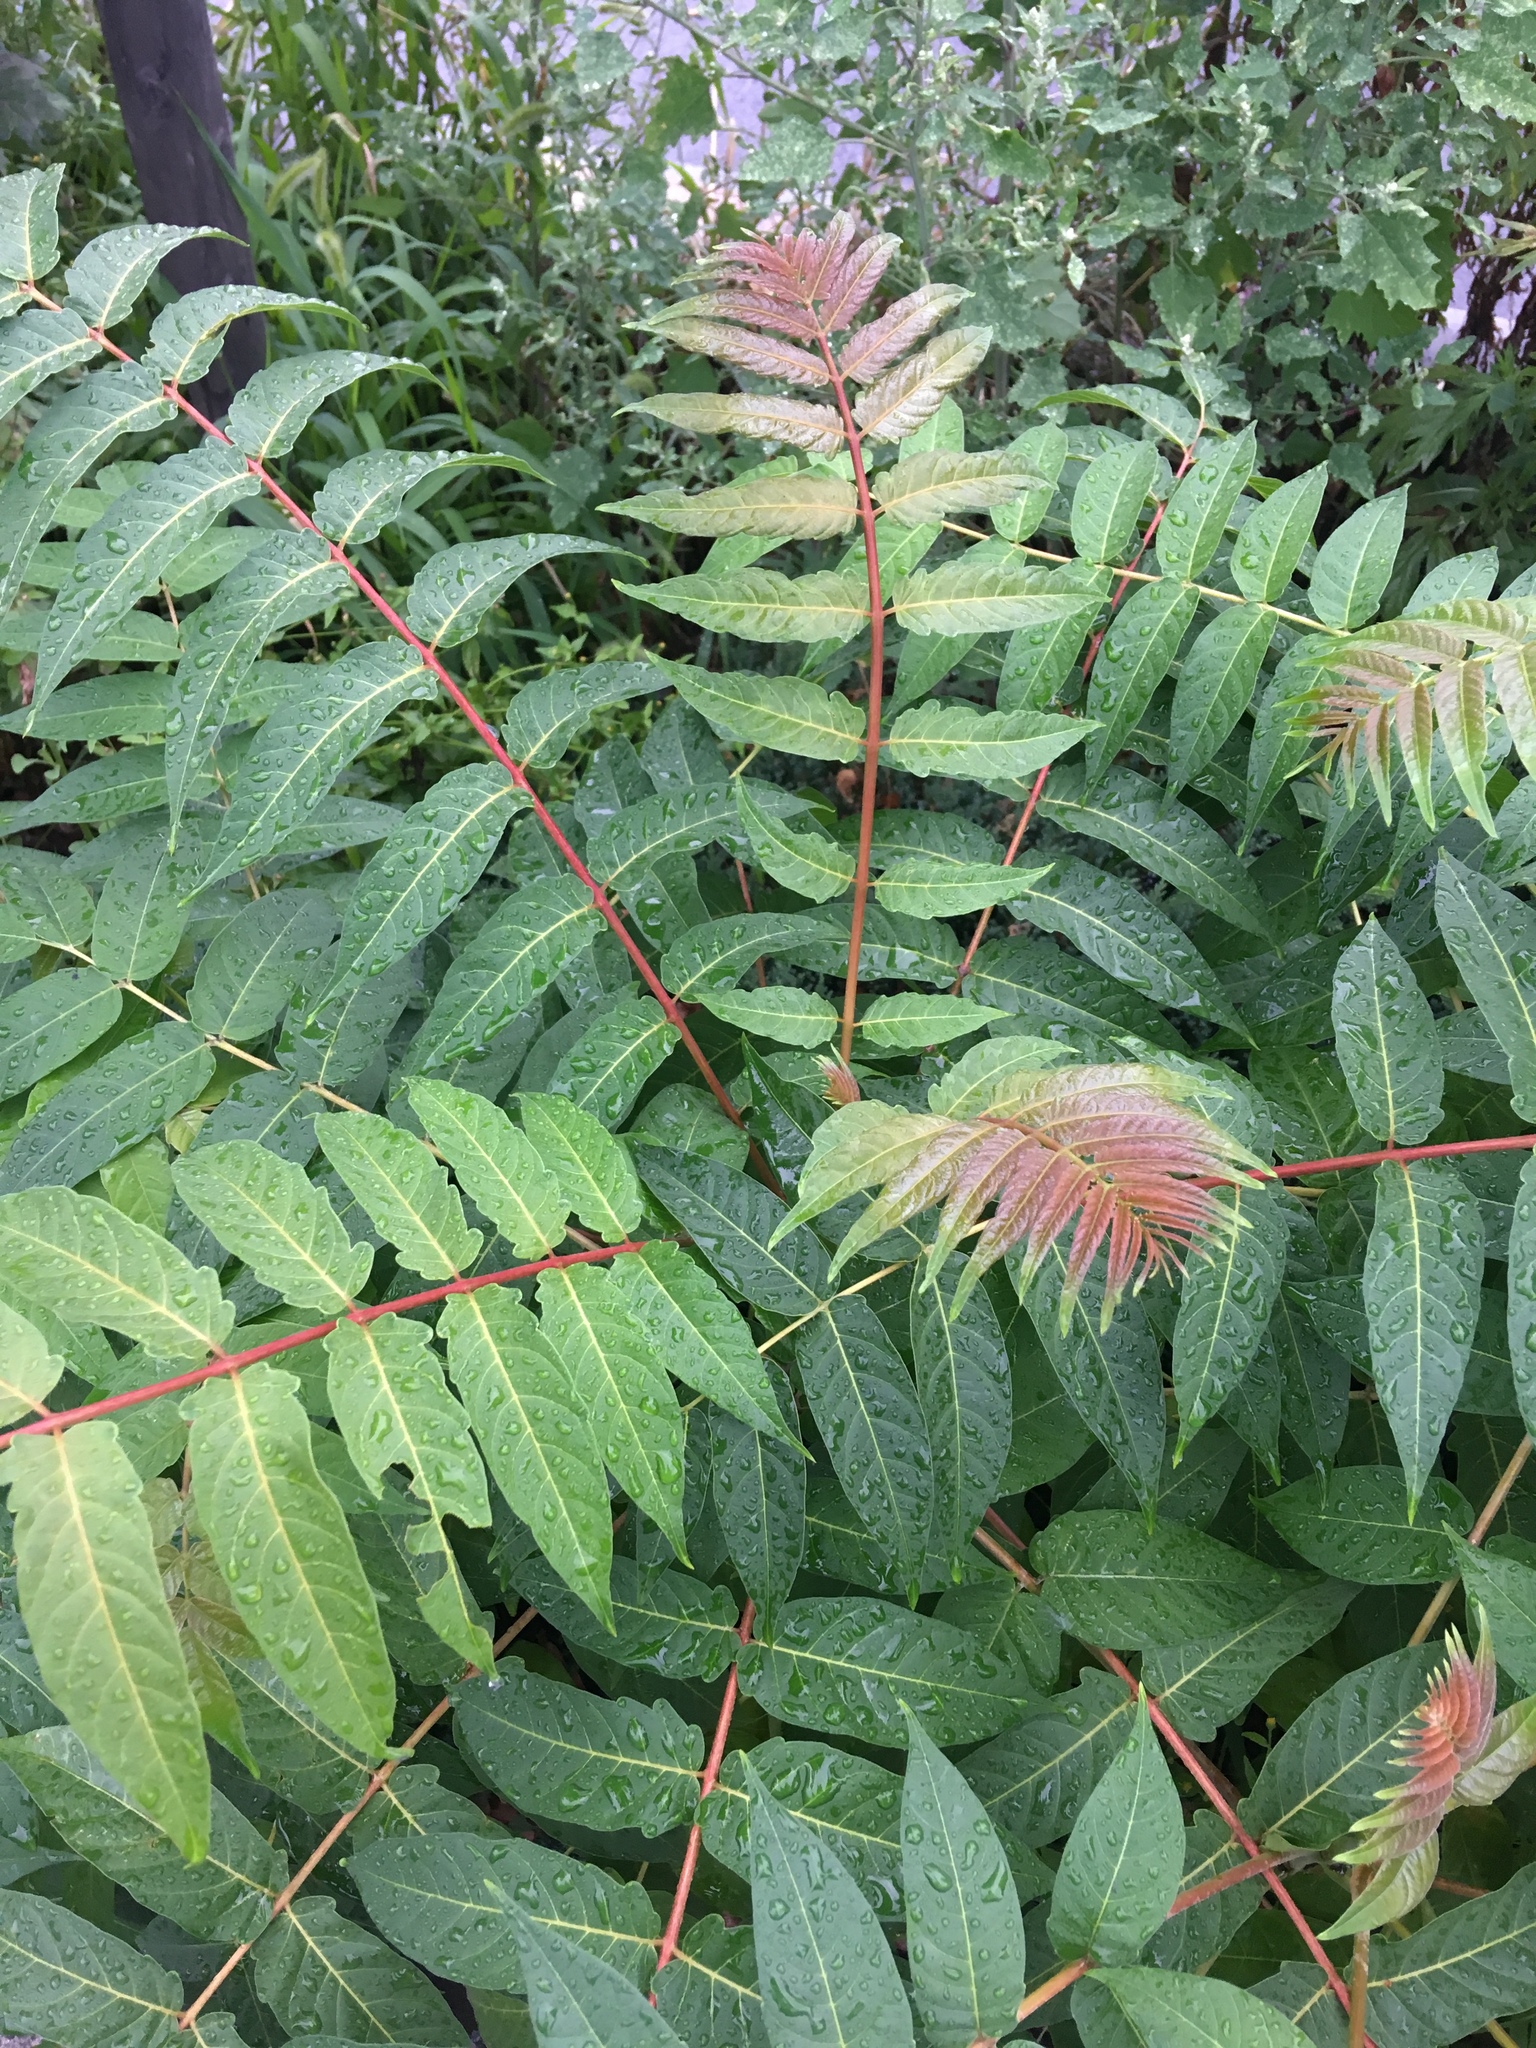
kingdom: Plantae
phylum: Tracheophyta
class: Magnoliopsida
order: Sapindales
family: Simaroubaceae
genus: Ailanthus
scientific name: Ailanthus altissima
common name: Tree-of-heaven
